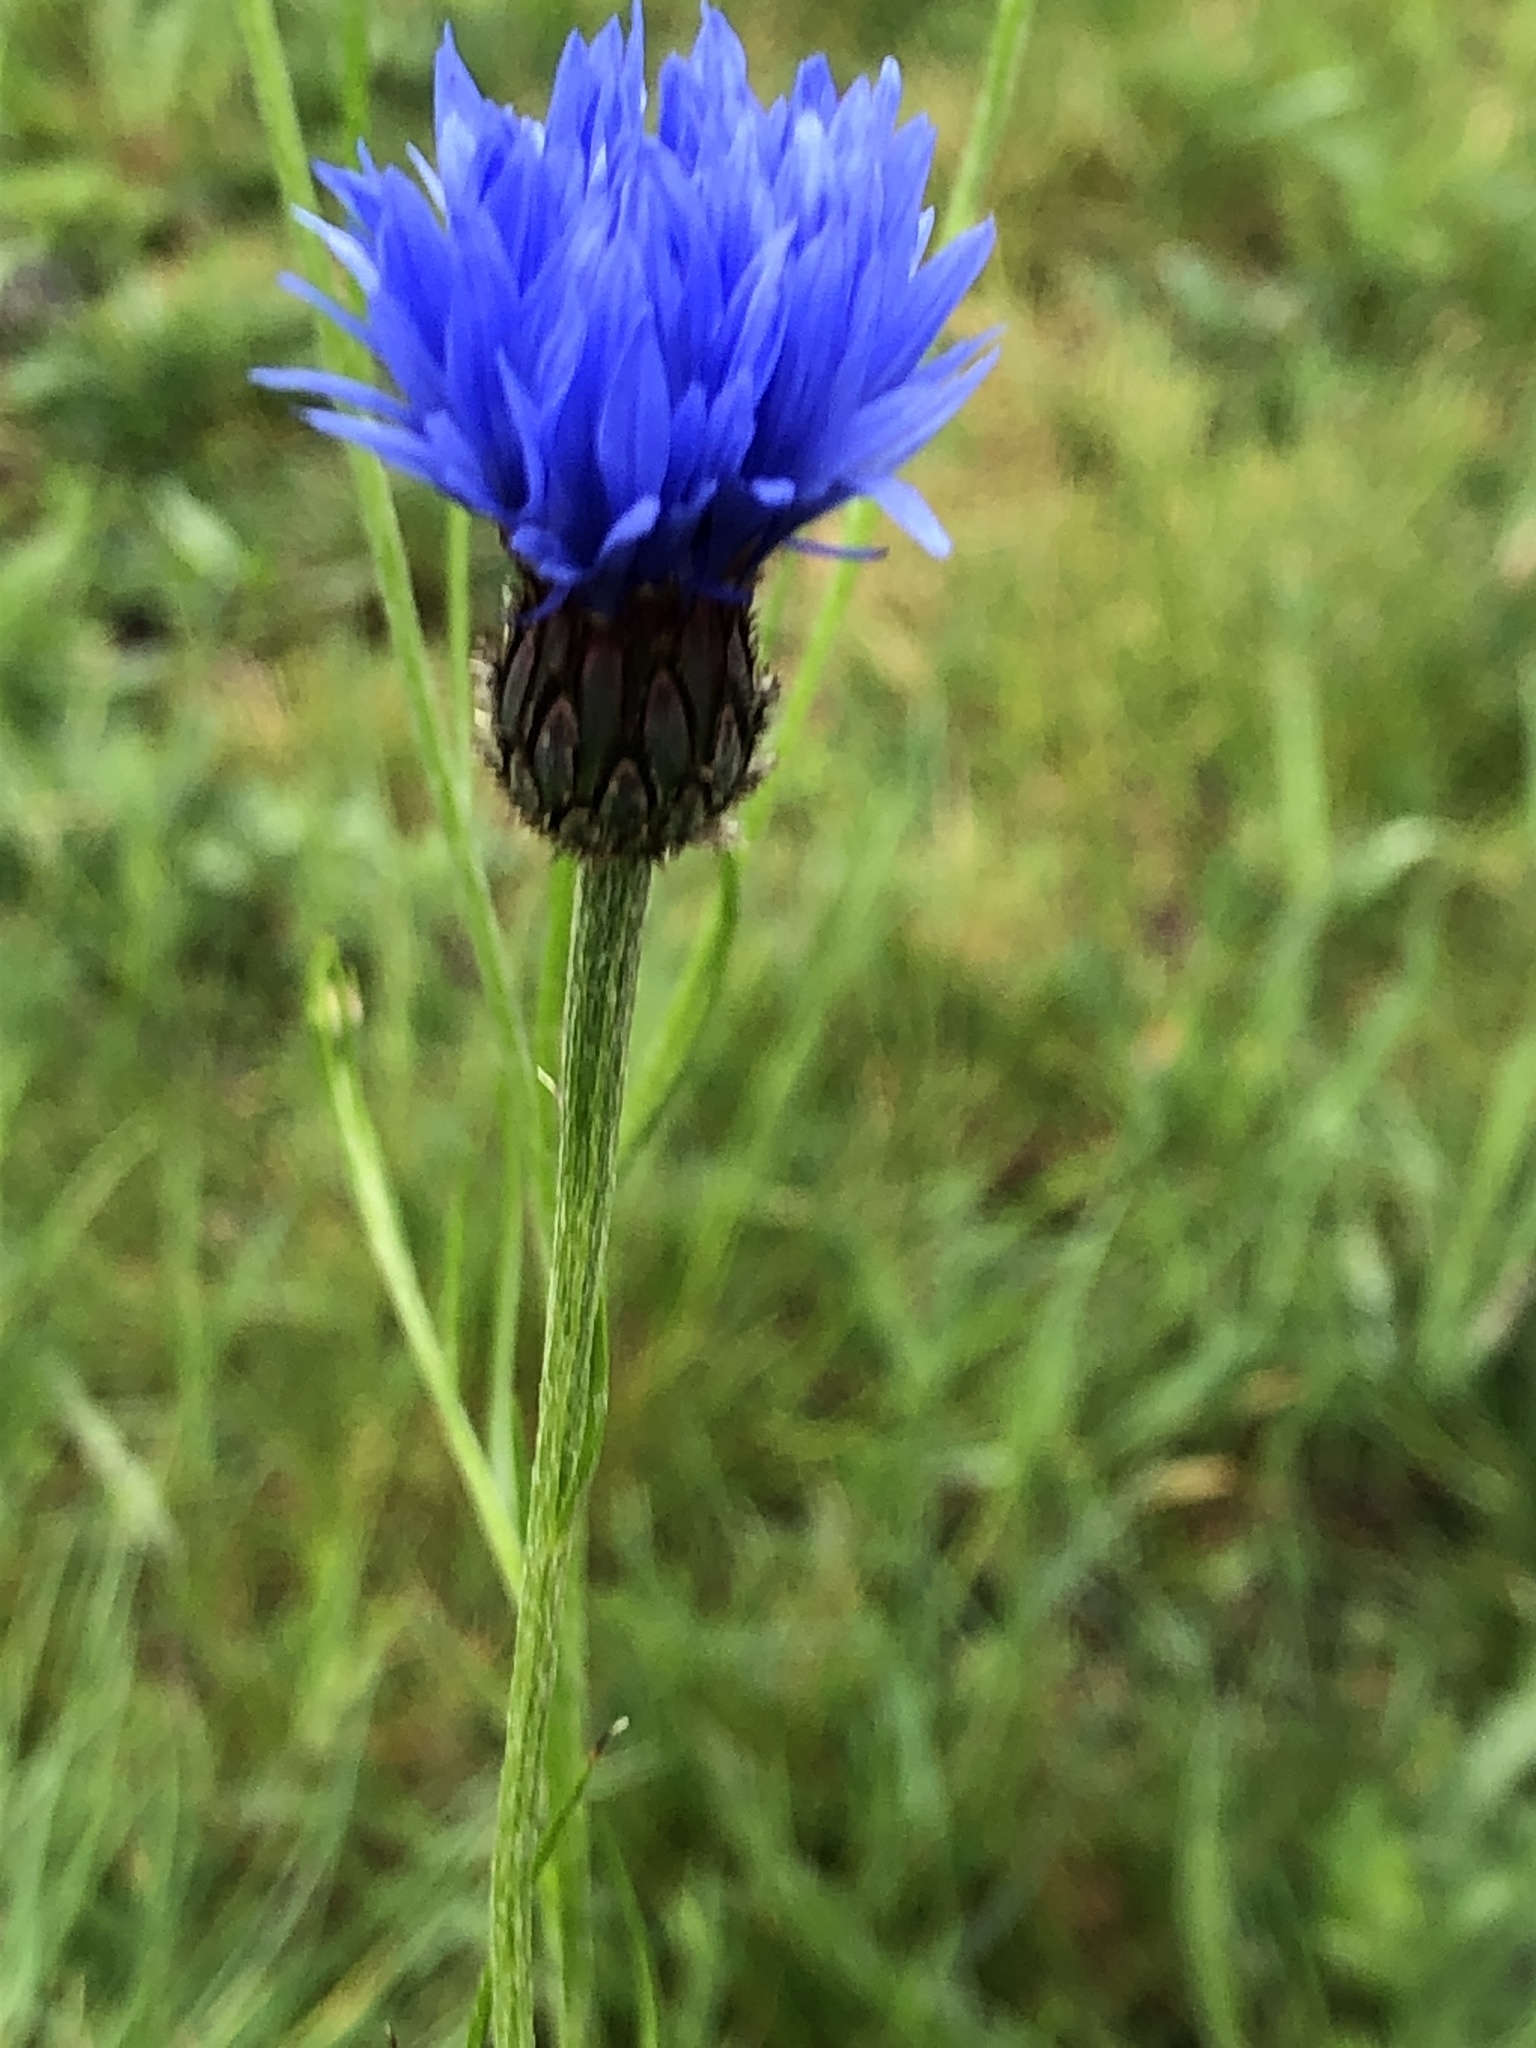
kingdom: Plantae
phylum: Tracheophyta
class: Magnoliopsida
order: Asterales
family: Asteraceae
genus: Centaurea
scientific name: Centaurea cyanus
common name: Cornflower
